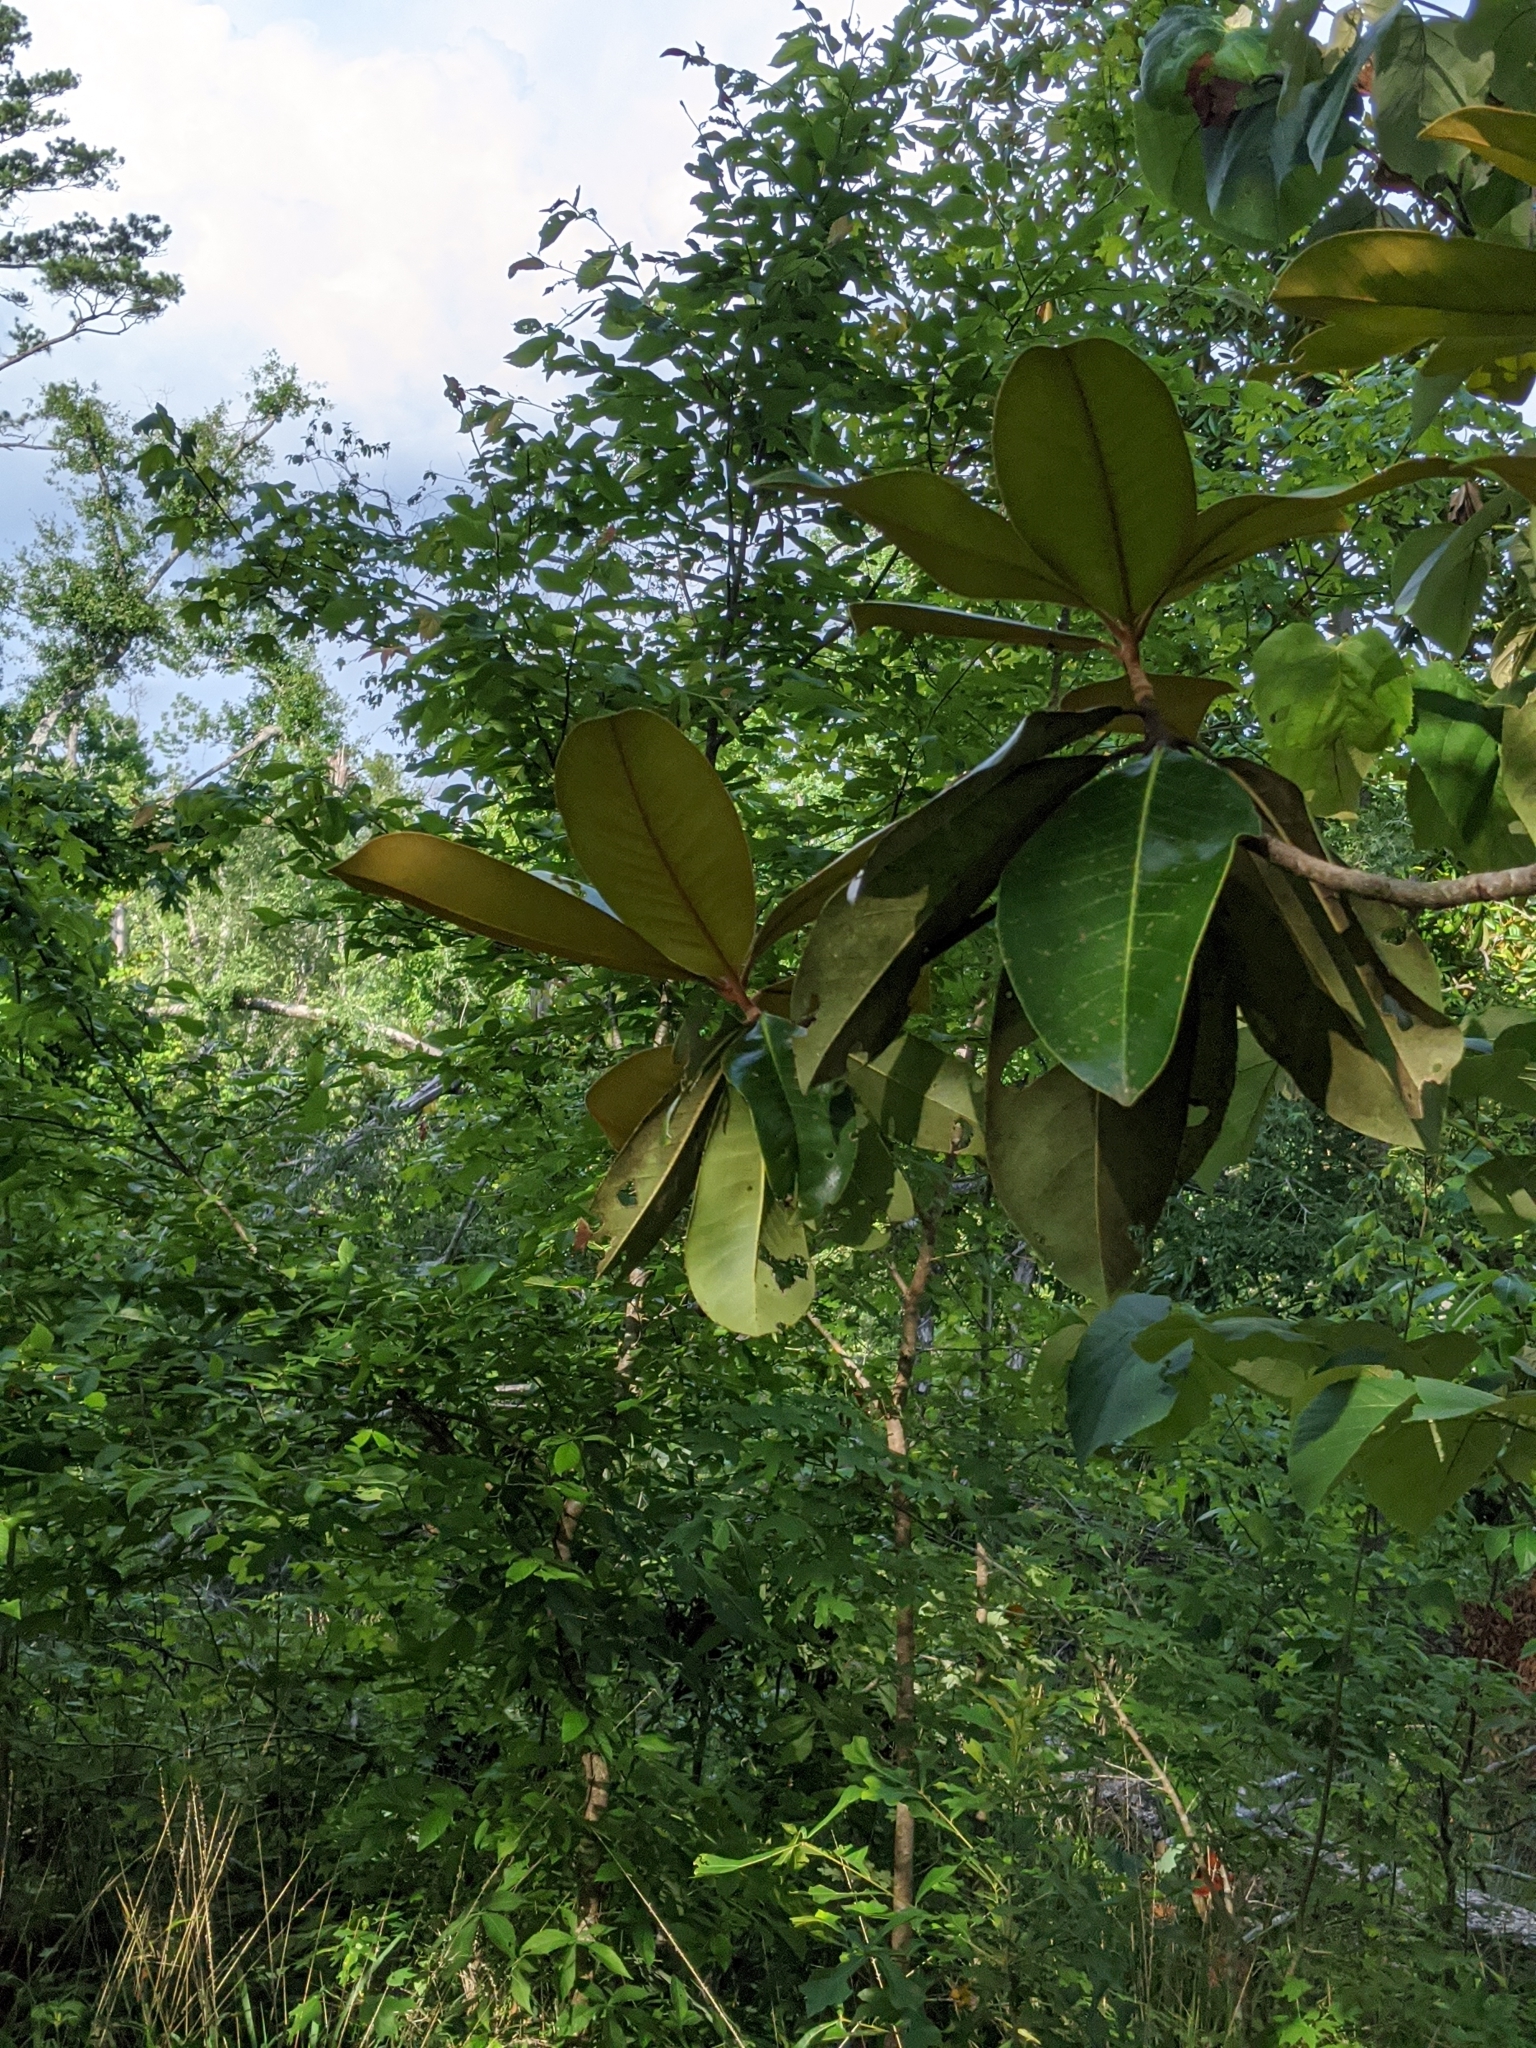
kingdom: Plantae
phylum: Tracheophyta
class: Magnoliopsida
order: Magnoliales
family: Magnoliaceae
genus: Magnolia
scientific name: Magnolia grandiflora
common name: Southern magnolia
